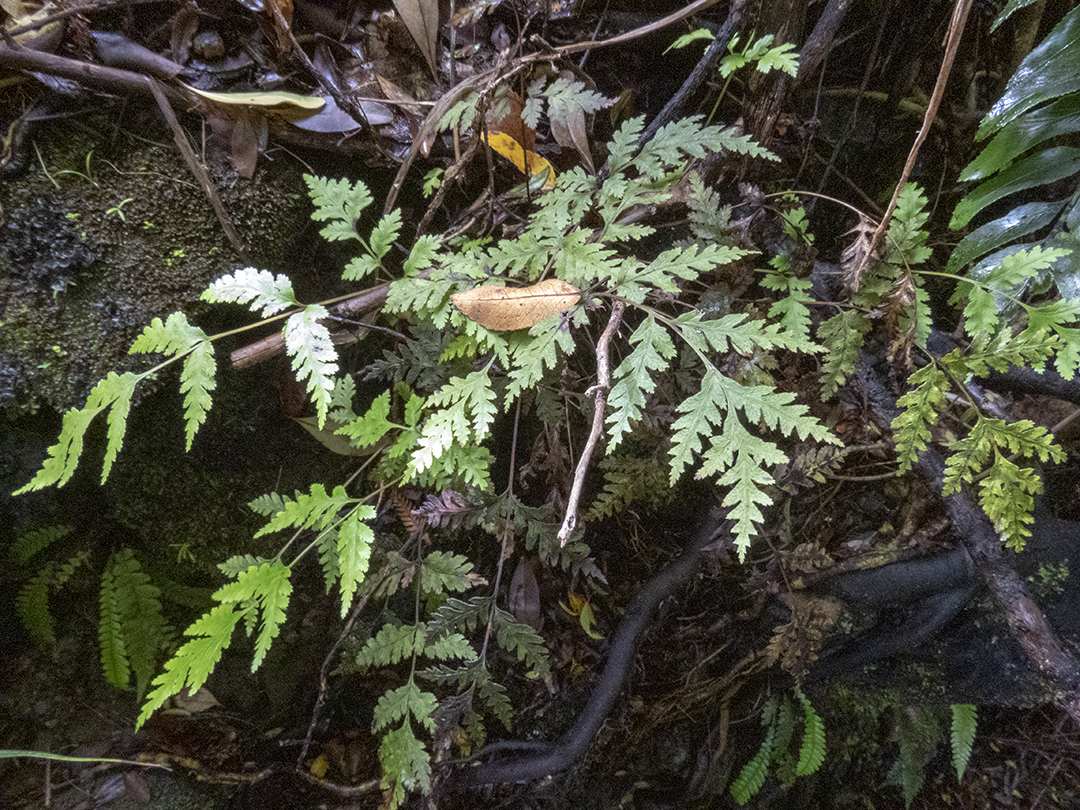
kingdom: Plantae
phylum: Tracheophyta
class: Polypodiopsida
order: Polypodiales
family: Pteridaceae
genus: Pteris
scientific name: Pteris macilenta
